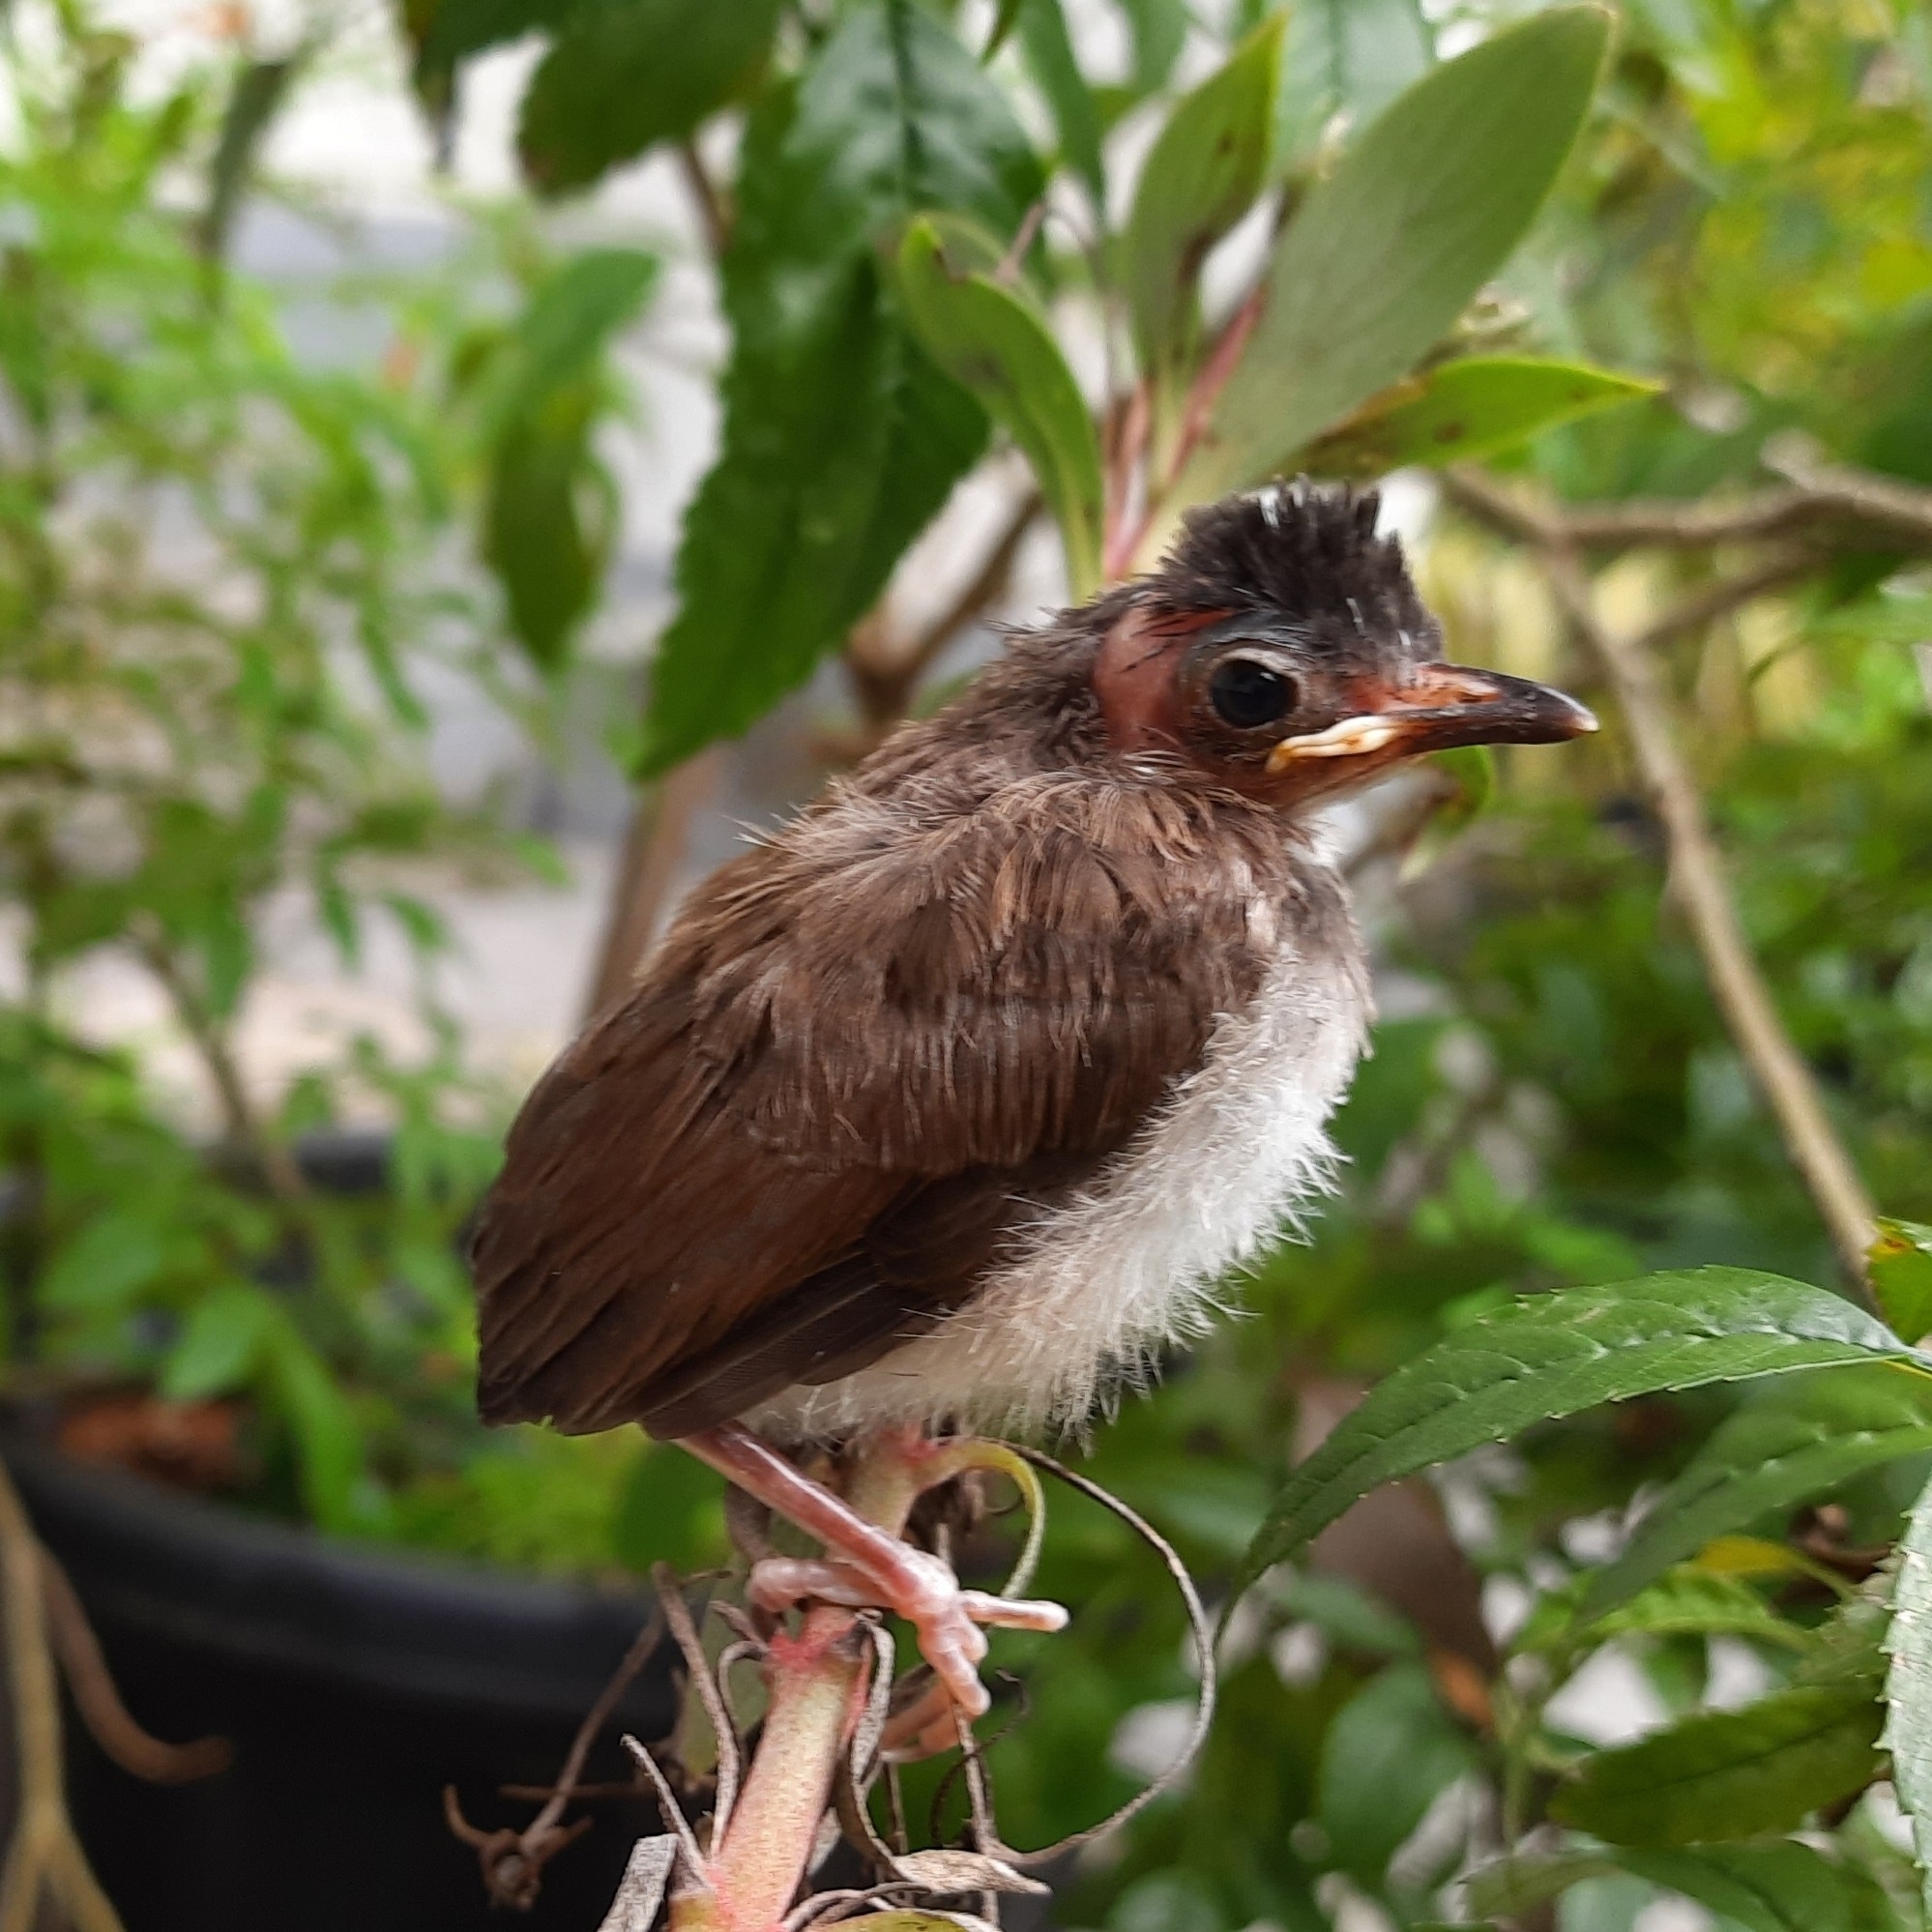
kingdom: Animalia
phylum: Chordata
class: Aves
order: Passeriformes
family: Pycnonotidae
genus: Pycnonotus
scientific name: Pycnonotus jocosus
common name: Red-whiskered bulbul
